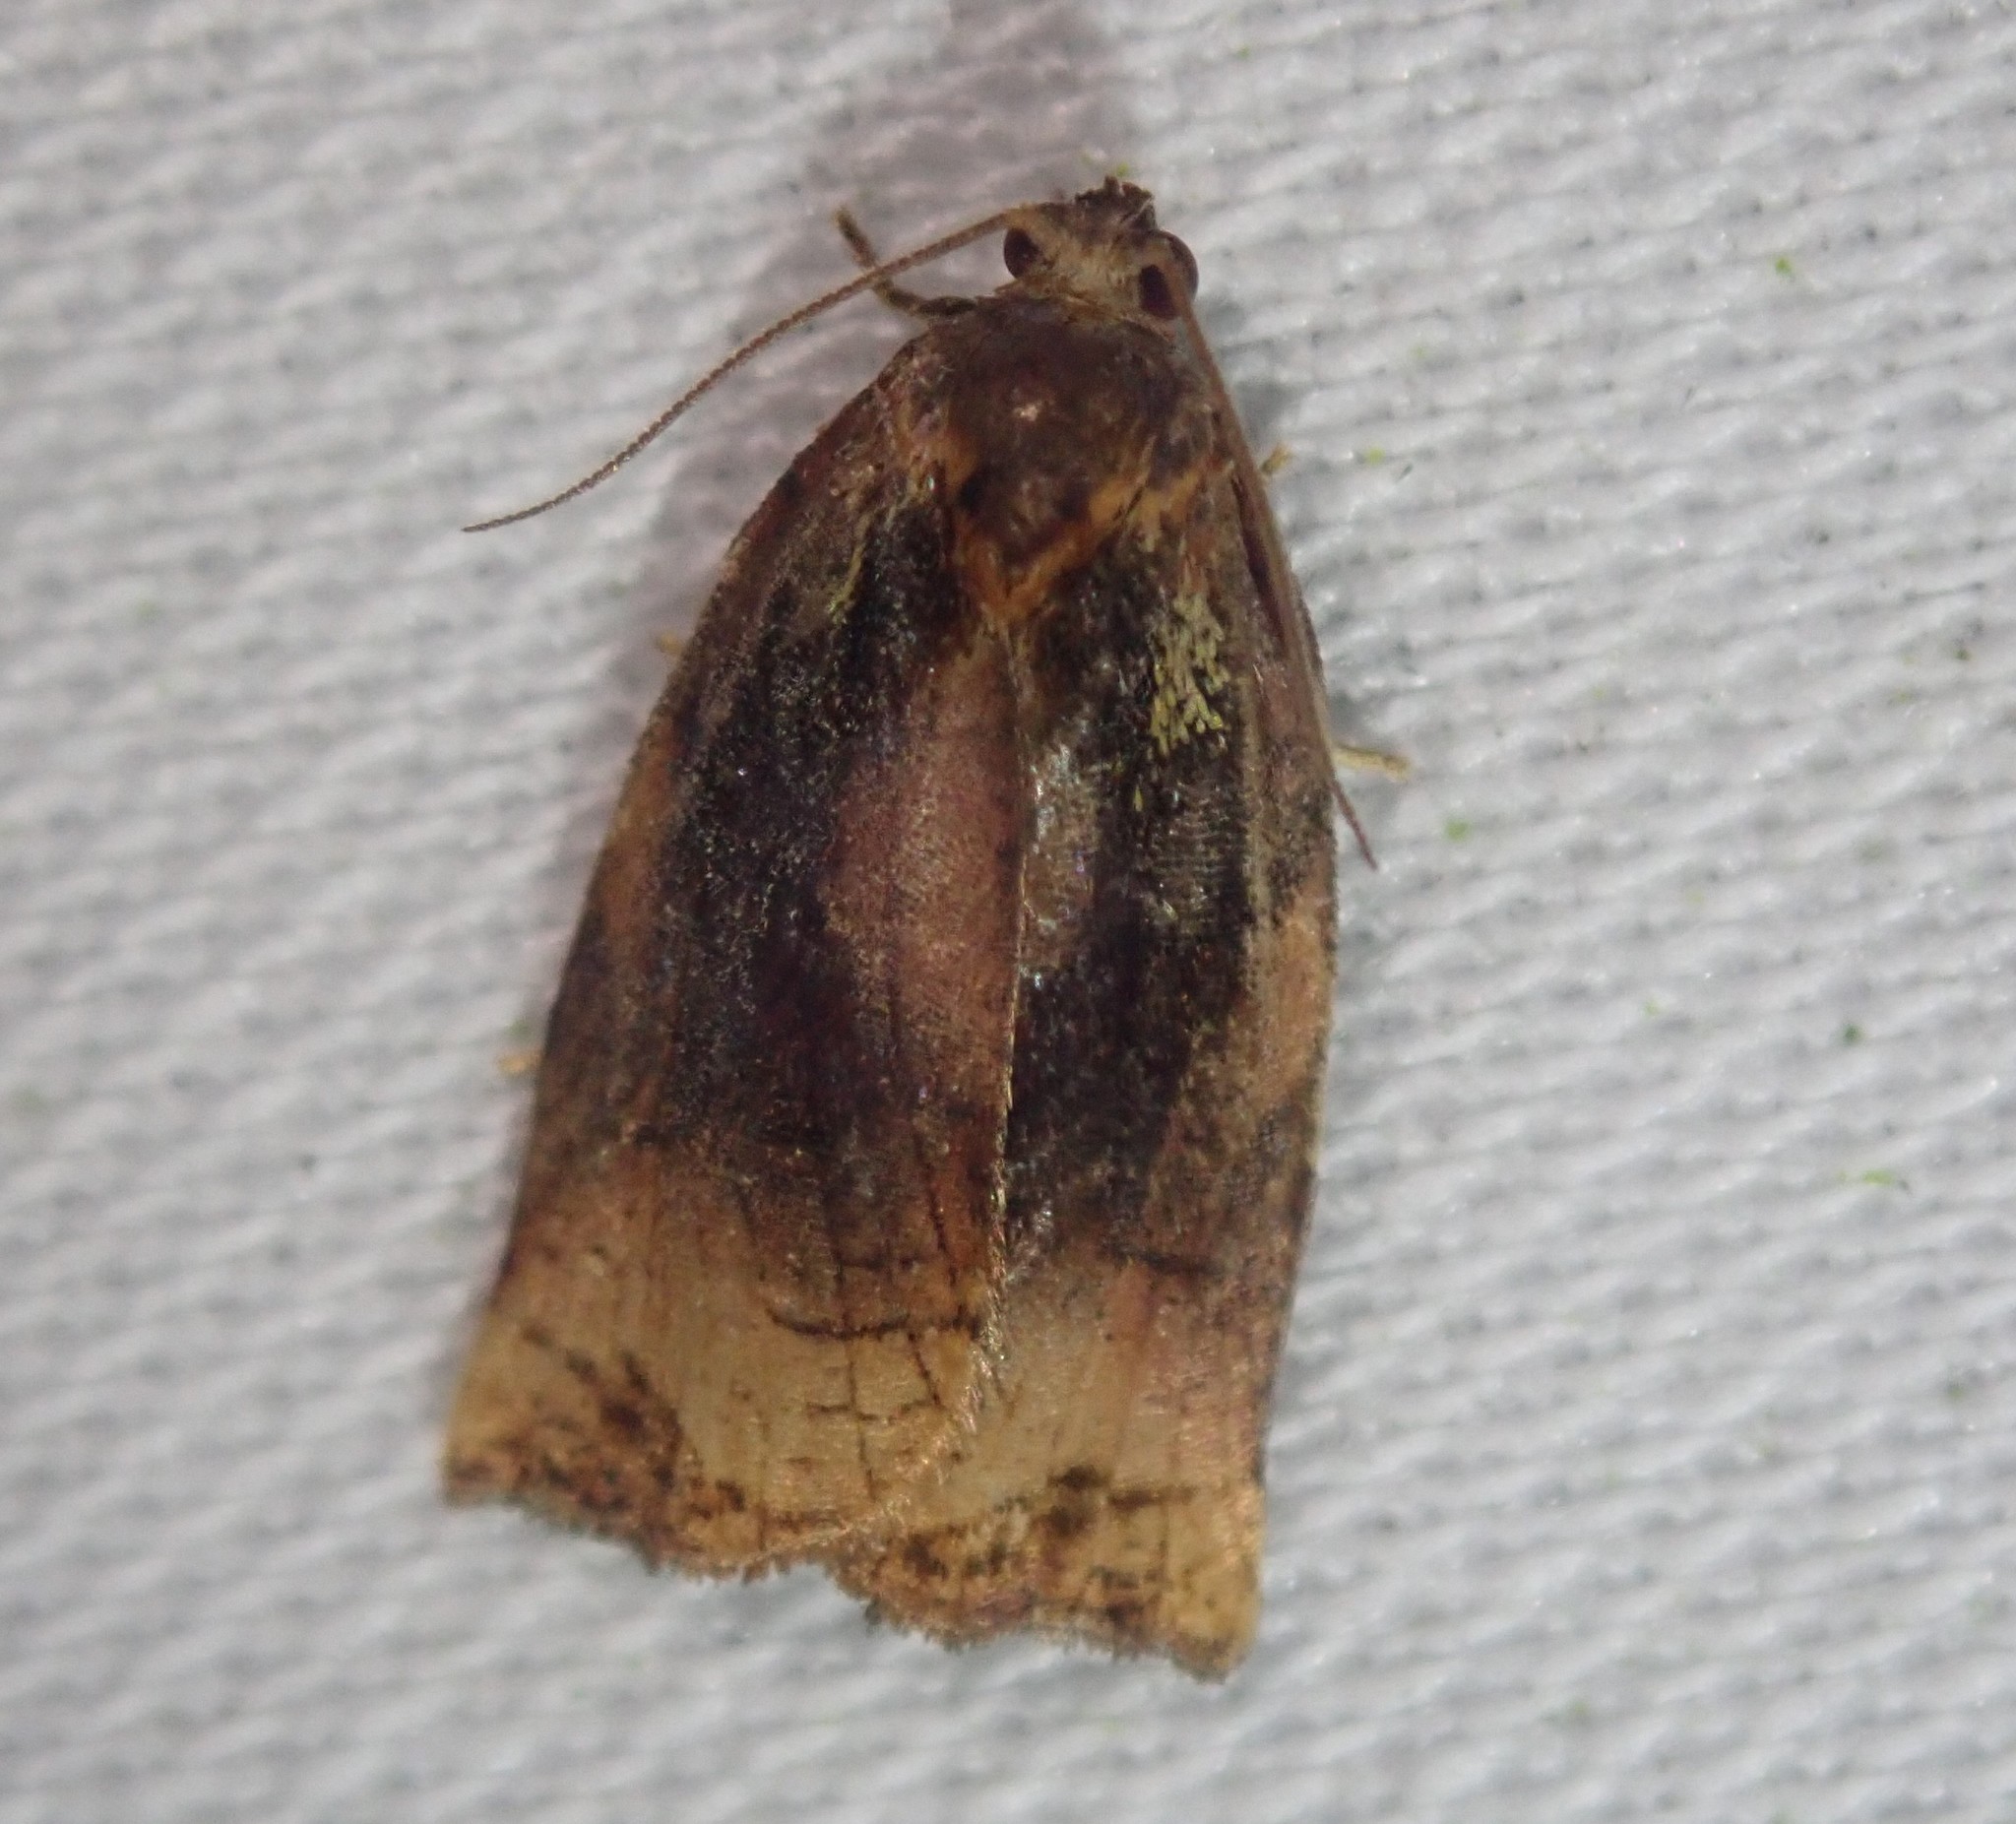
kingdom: Animalia
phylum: Arthropoda
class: Insecta
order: Lepidoptera
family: Tortricidae
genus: Archips
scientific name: Archips podana
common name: Large fruit-tree tortrix
